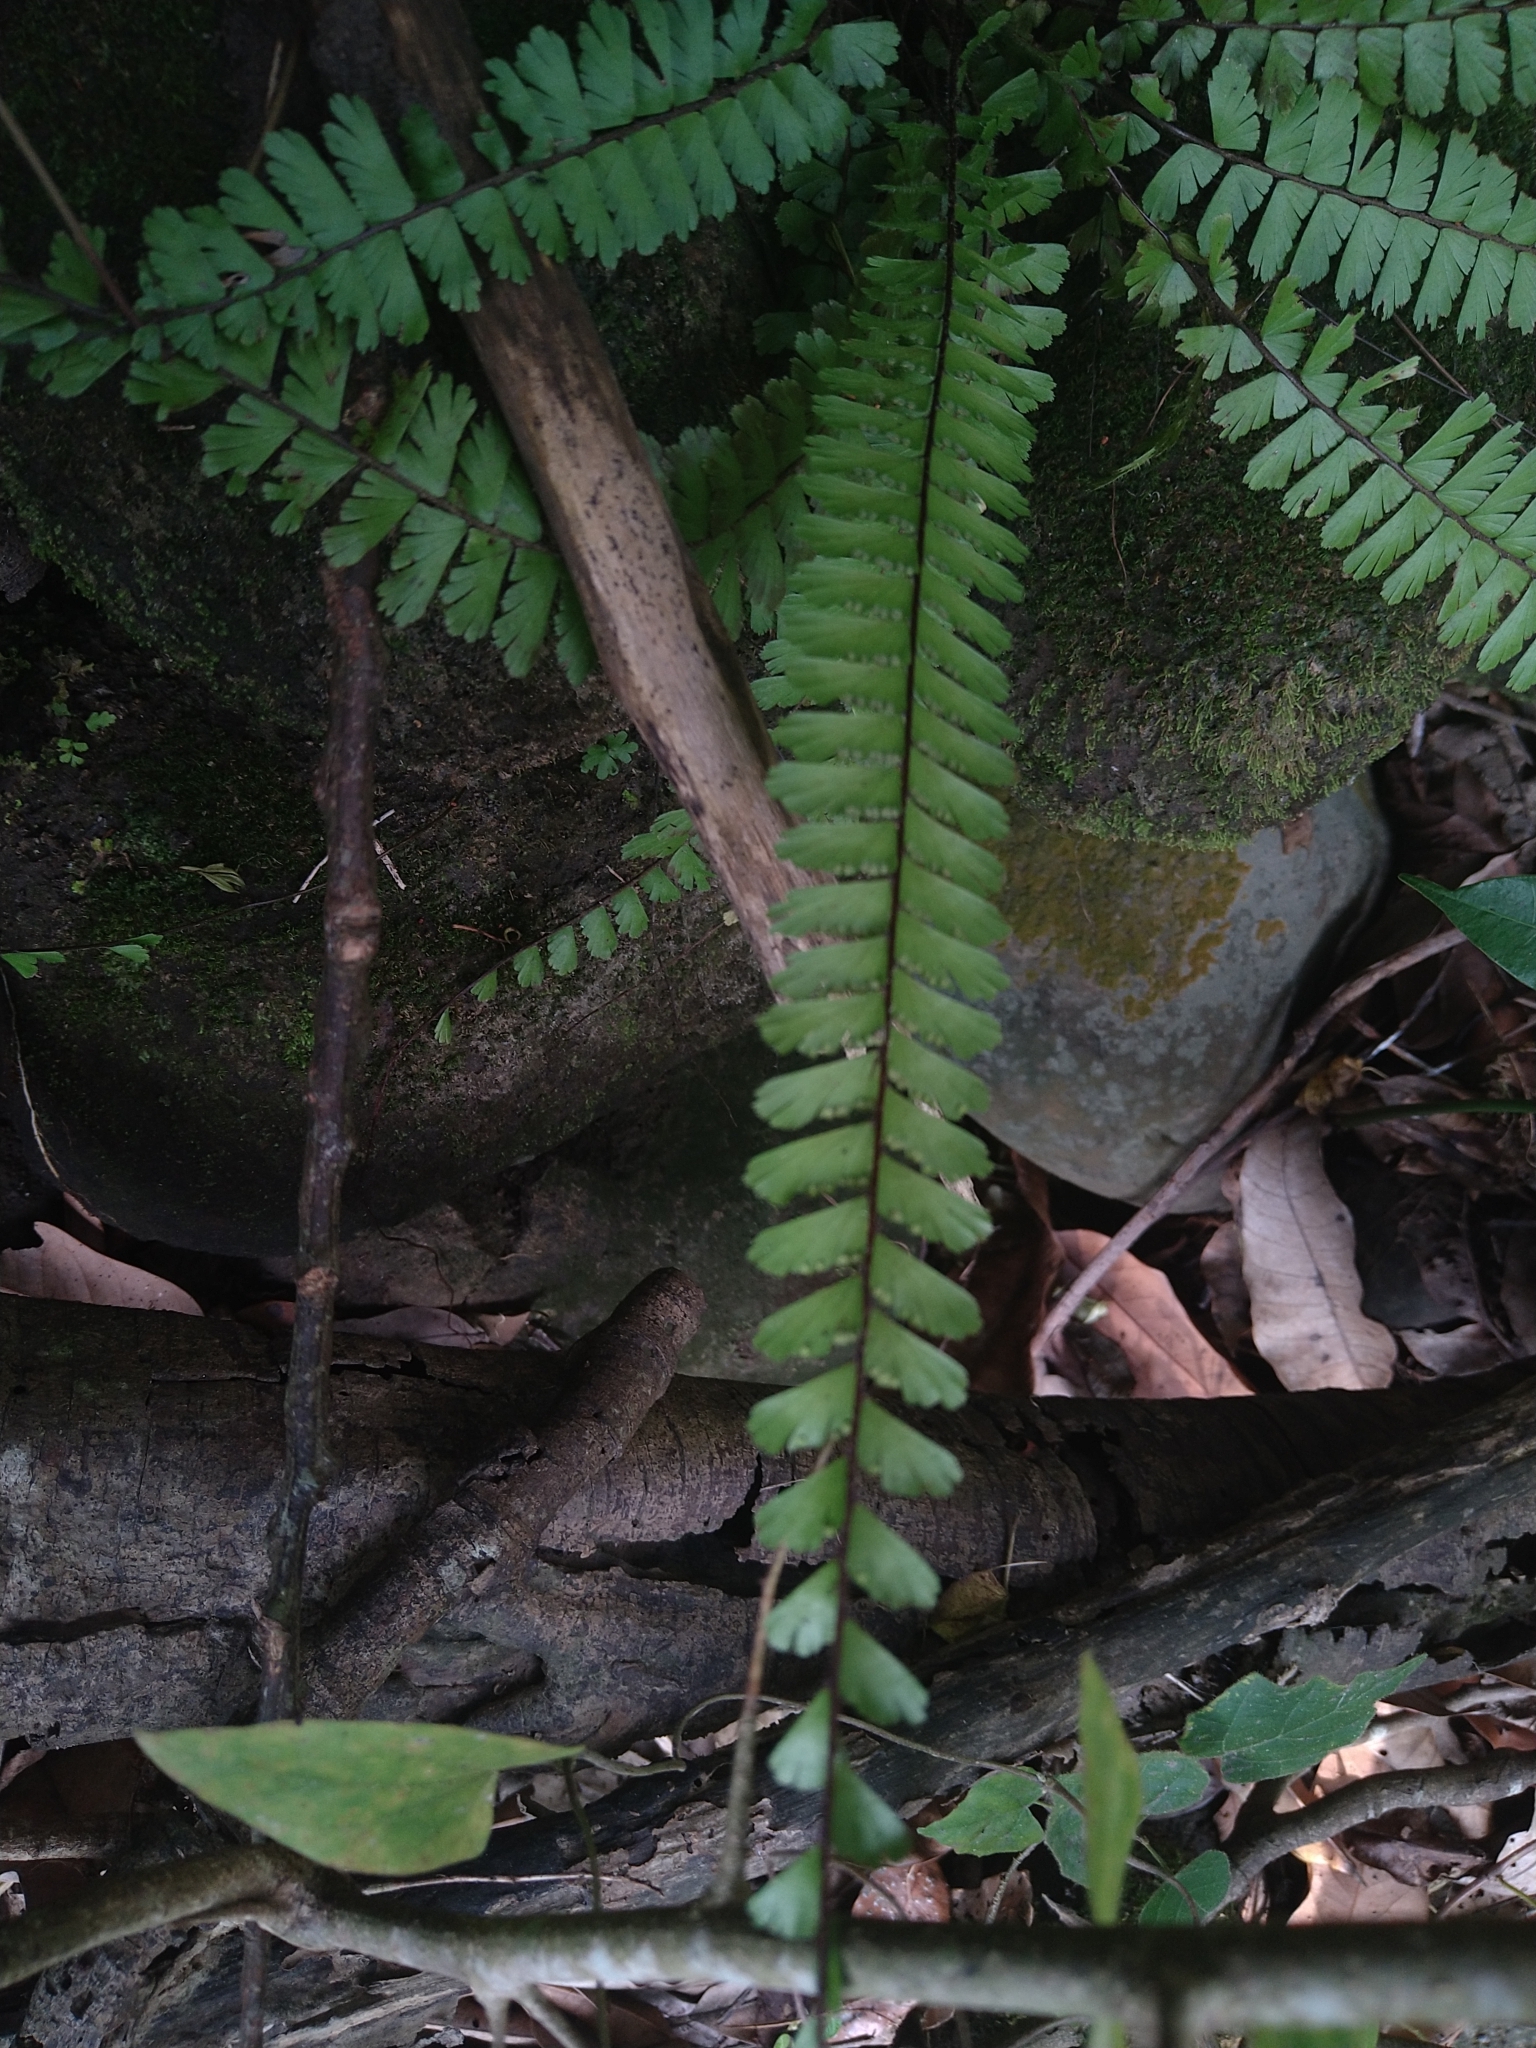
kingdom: Plantae
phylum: Tracheophyta
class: Polypodiopsida
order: Polypodiales
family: Pteridaceae
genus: Adiantum
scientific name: Adiantum caudatum
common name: Tailed maidenhair
